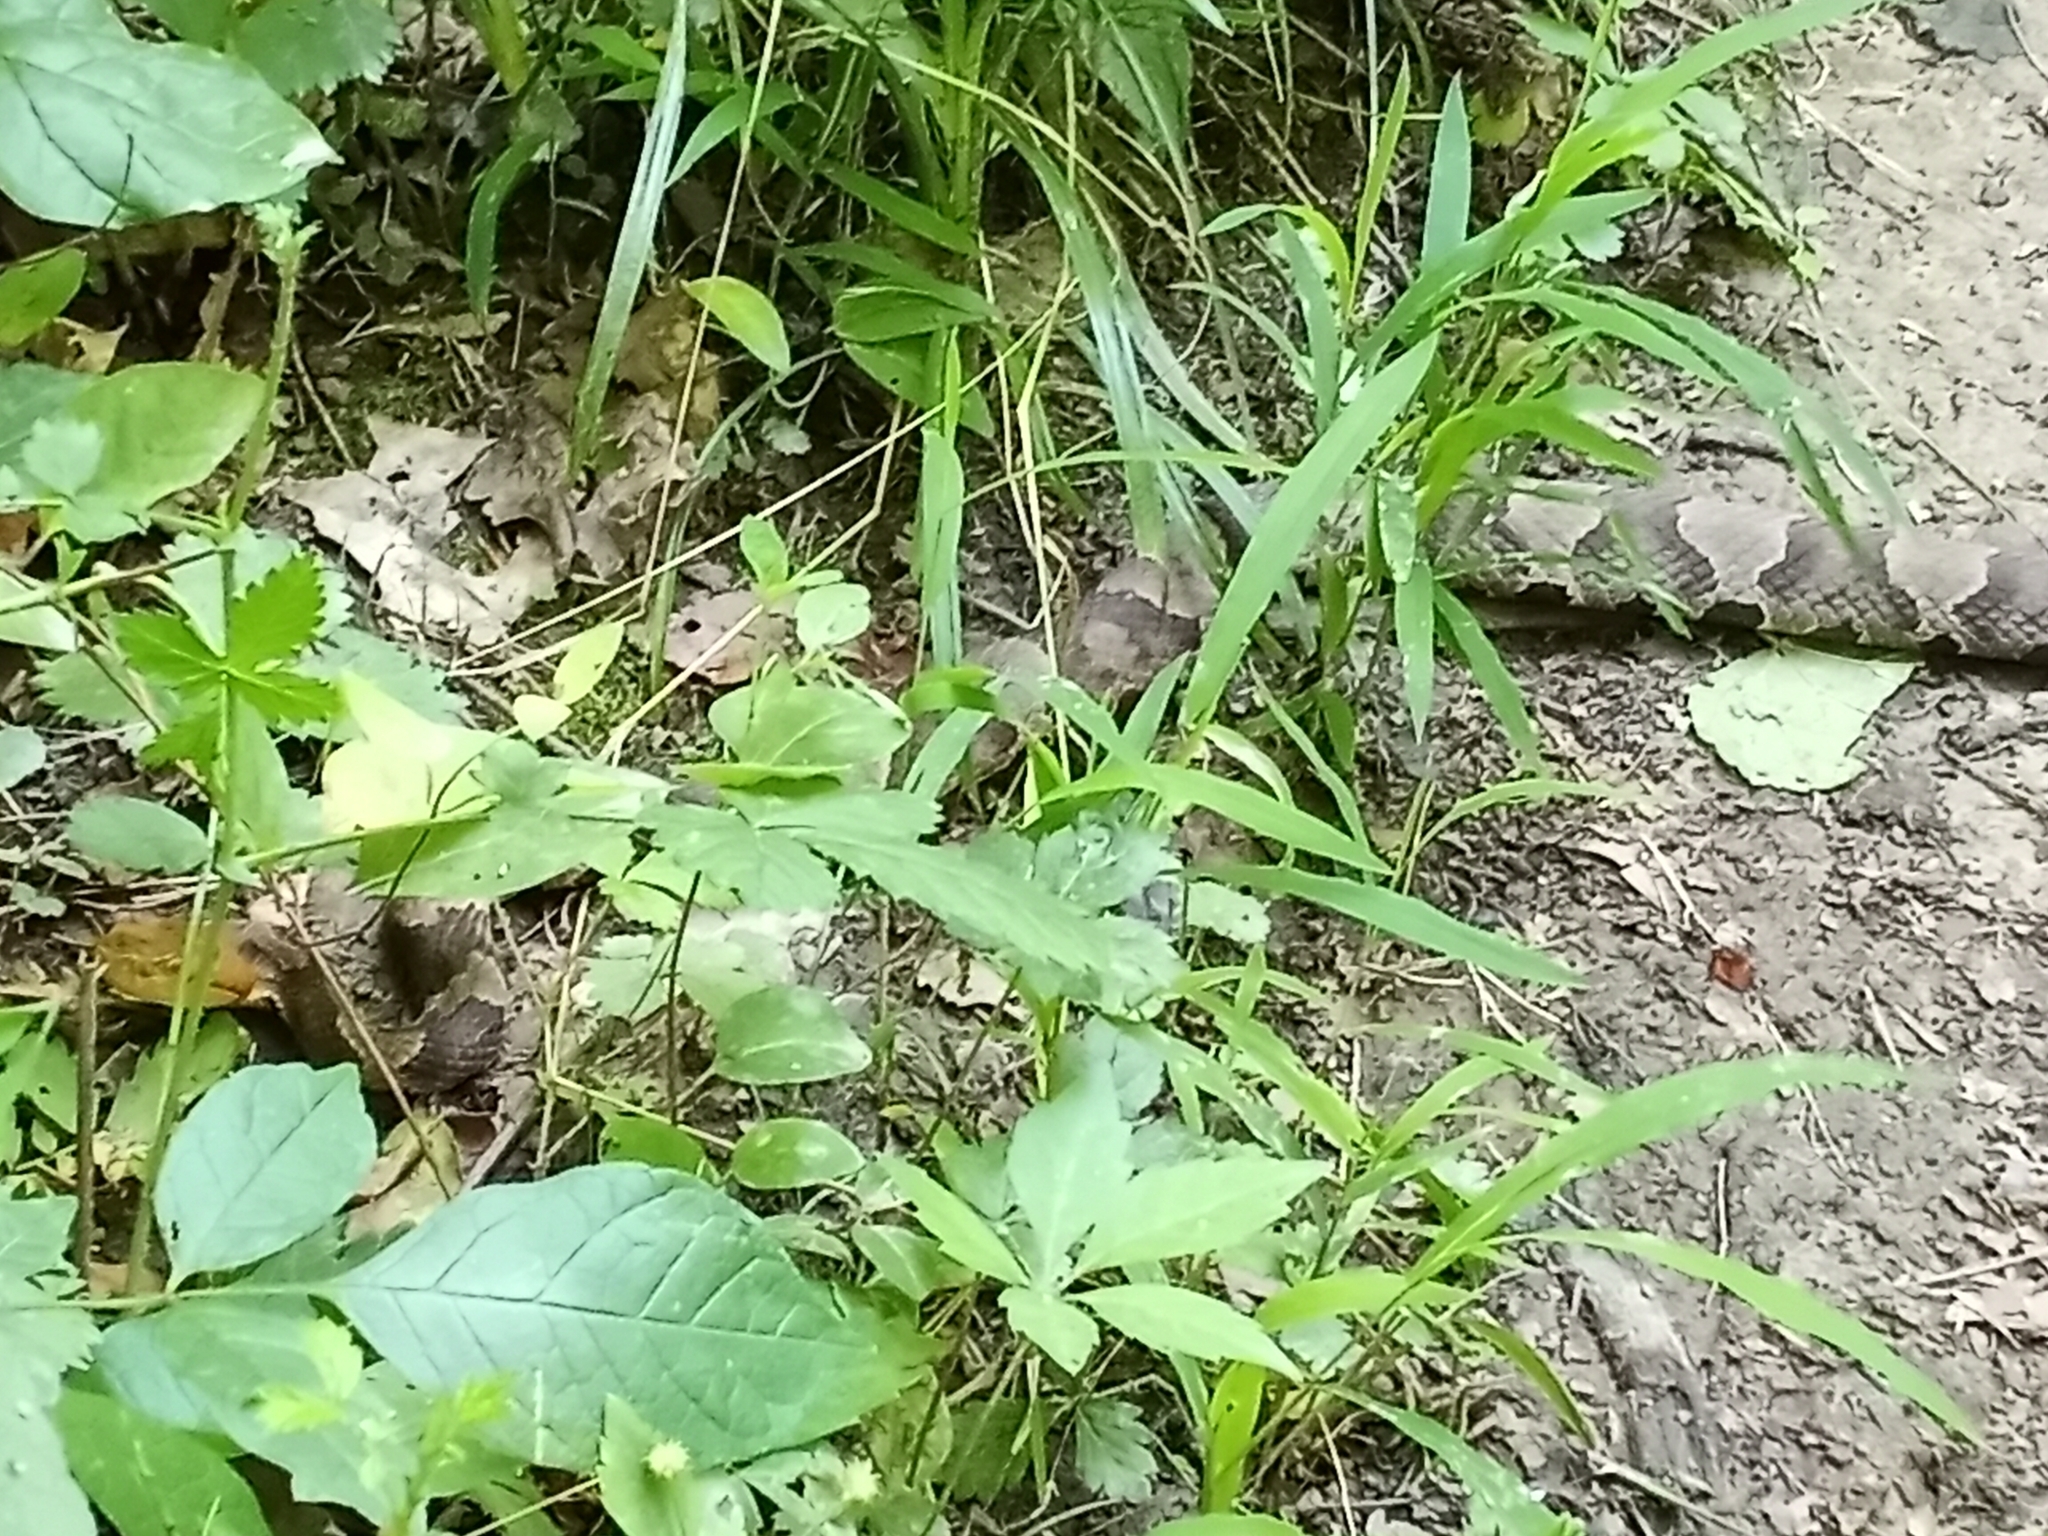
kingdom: Animalia
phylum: Chordata
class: Squamata
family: Viperidae
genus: Agkistrodon
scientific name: Agkistrodon contortrix
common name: Northern copperhead
